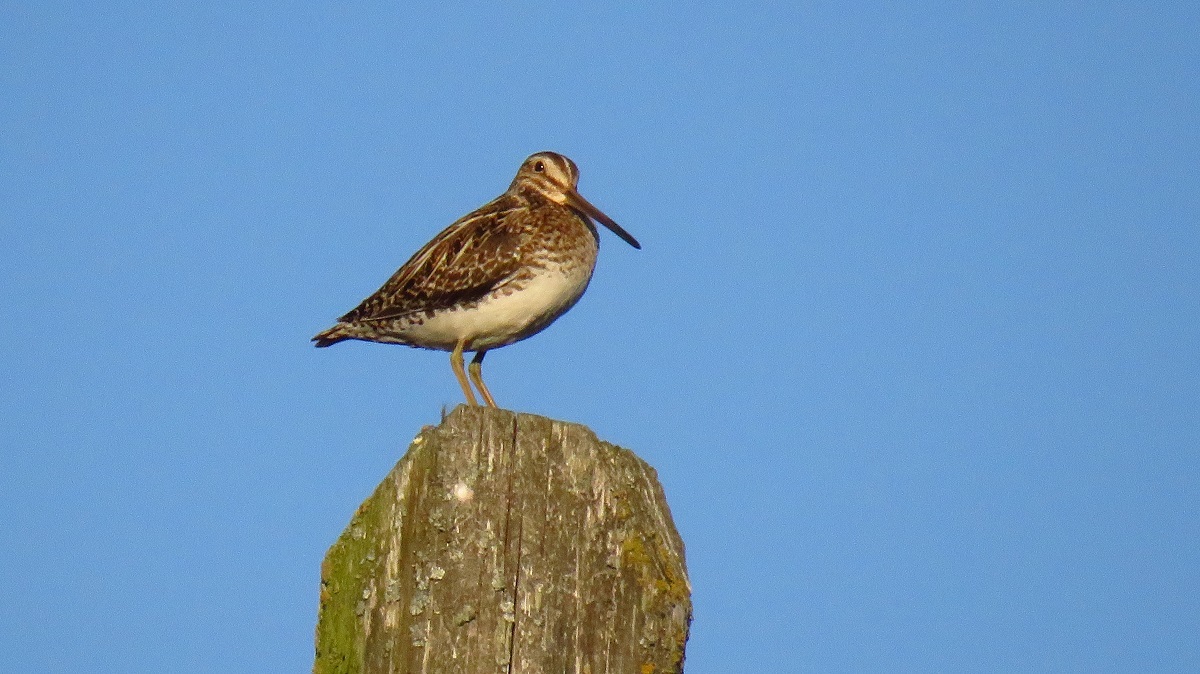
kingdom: Animalia
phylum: Chordata
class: Aves
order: Charadriiformes
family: Scolopacidae
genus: Gallinago
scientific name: Gallinago gallinago
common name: Common snipe
